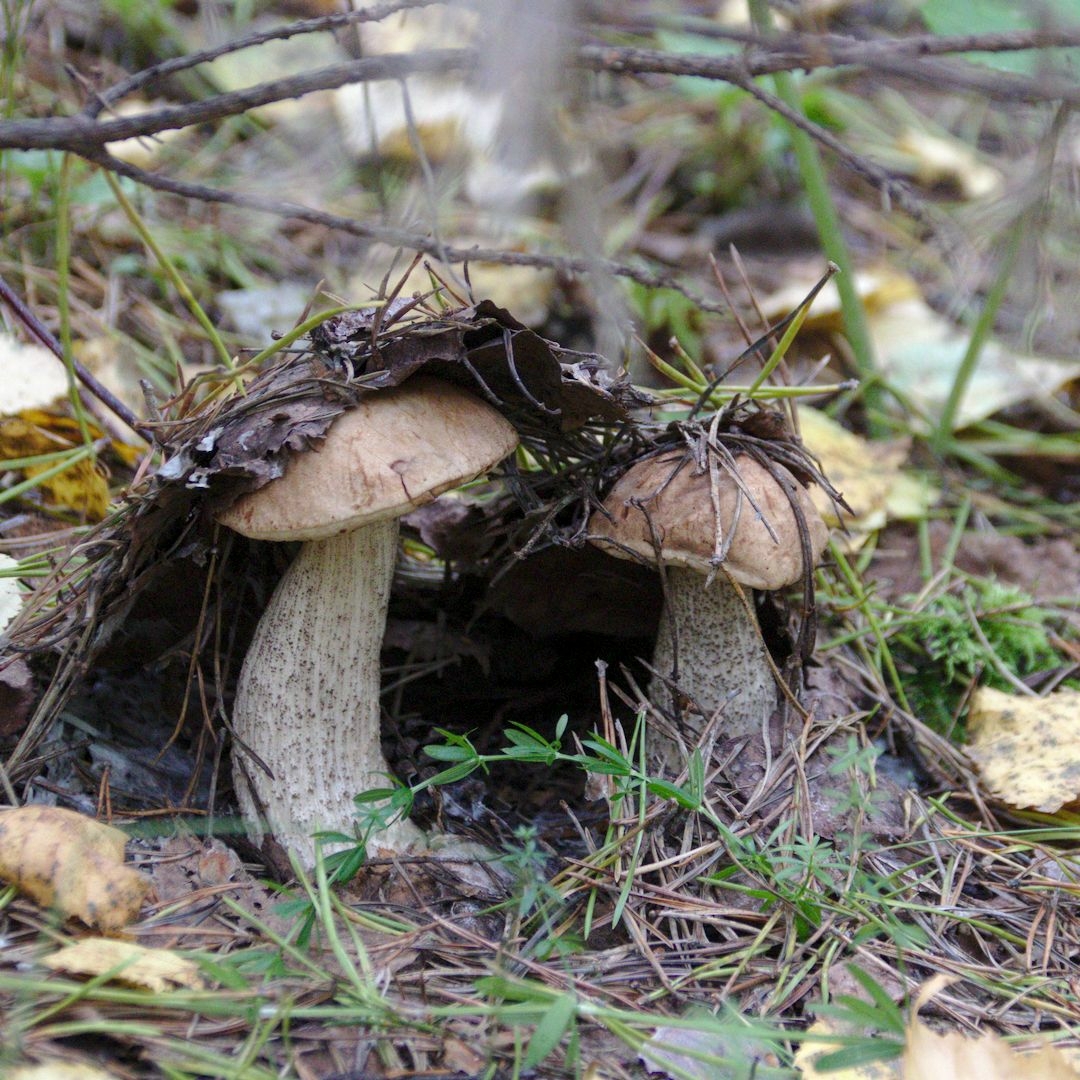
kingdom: Fungi
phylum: Basidiomycota
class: Agaricomycetes
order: Boletales
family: Boletaceae
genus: Leccinum
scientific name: Leccinum scabrum
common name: Blushing bolete
